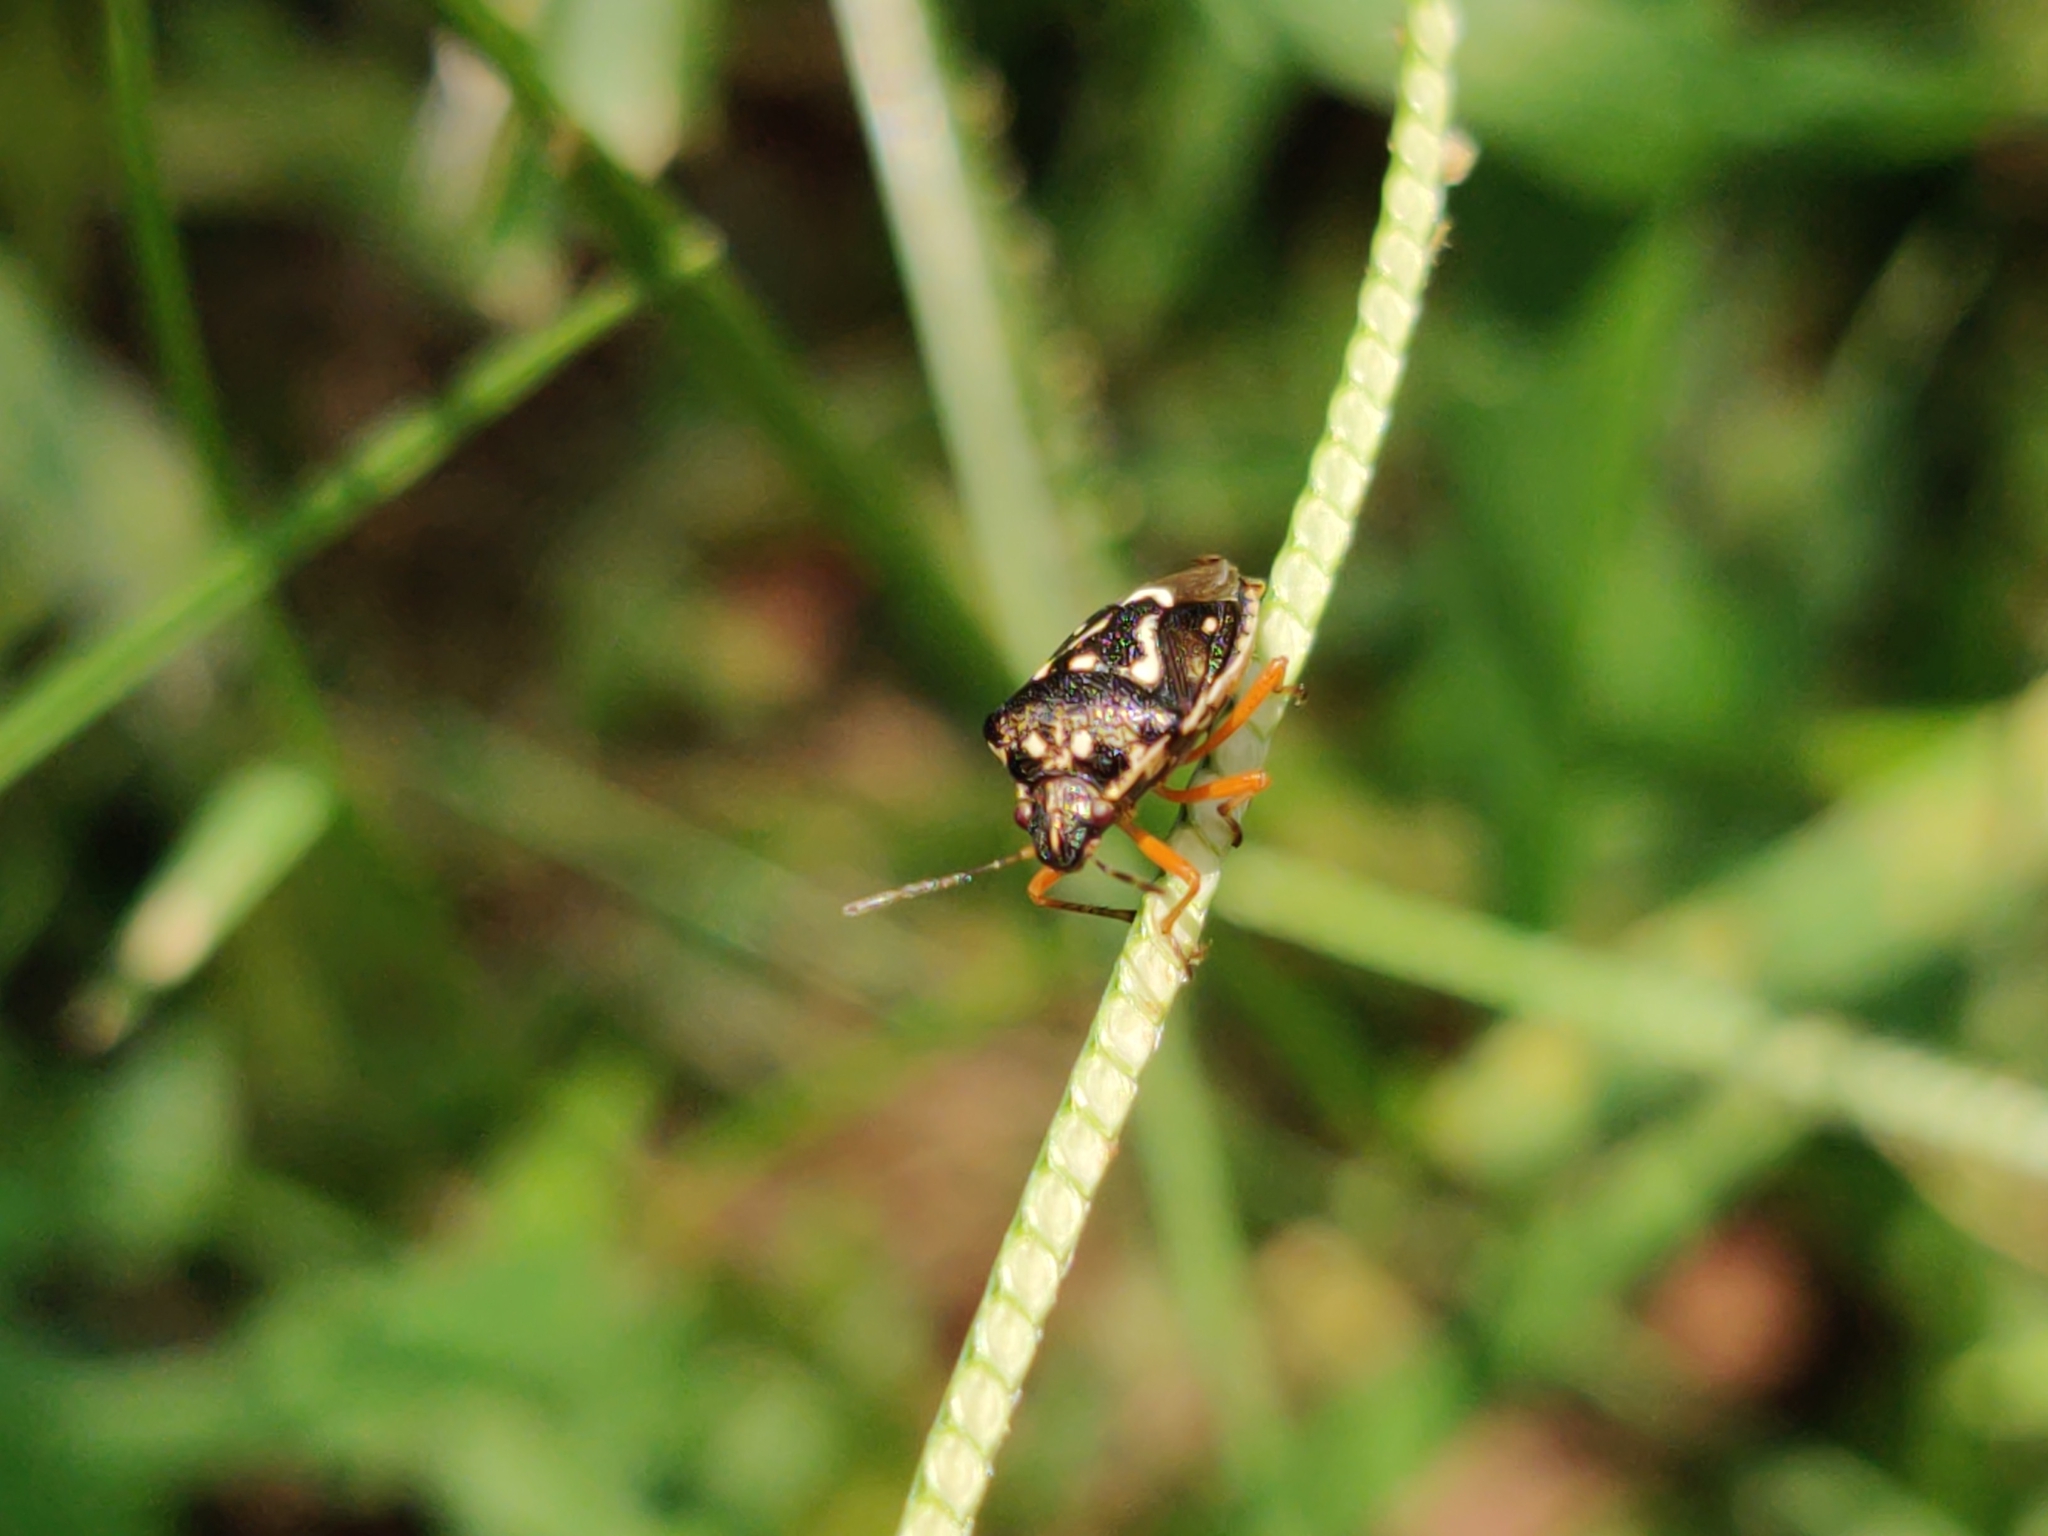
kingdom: Animalia
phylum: Arthropoda
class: Insecta
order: Hemiptera
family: Pentatomidae
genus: Mormidea
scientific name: Mormidea pama
